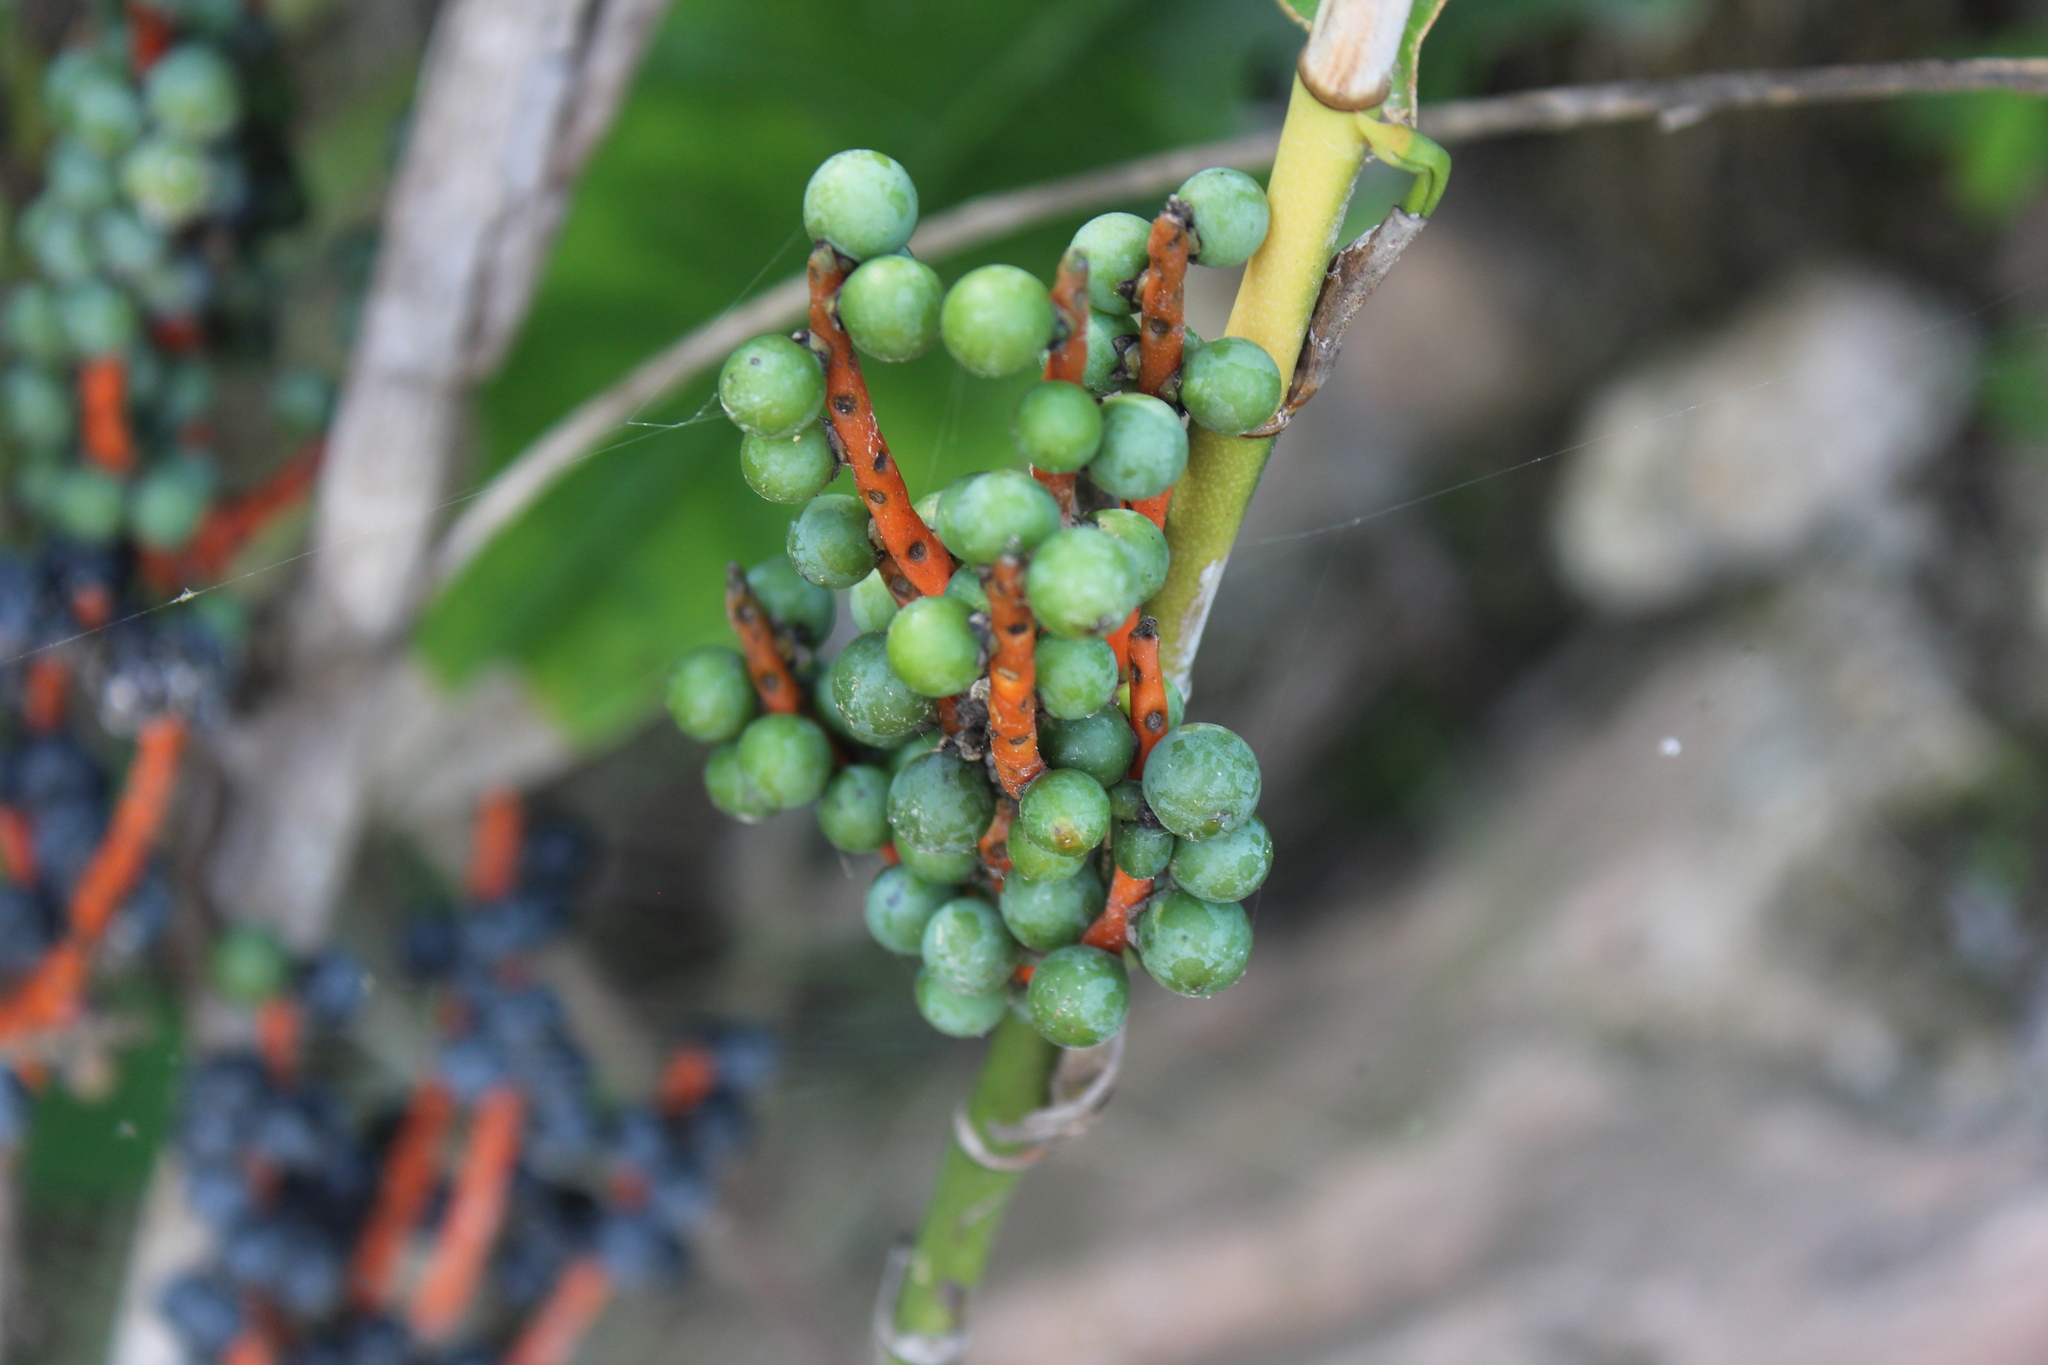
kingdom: Plantae
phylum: Tracheophyta
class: Liliopsida
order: Arecales
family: Arecaceae
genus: Chamaedorea
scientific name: Chamaedorea tepejilote
